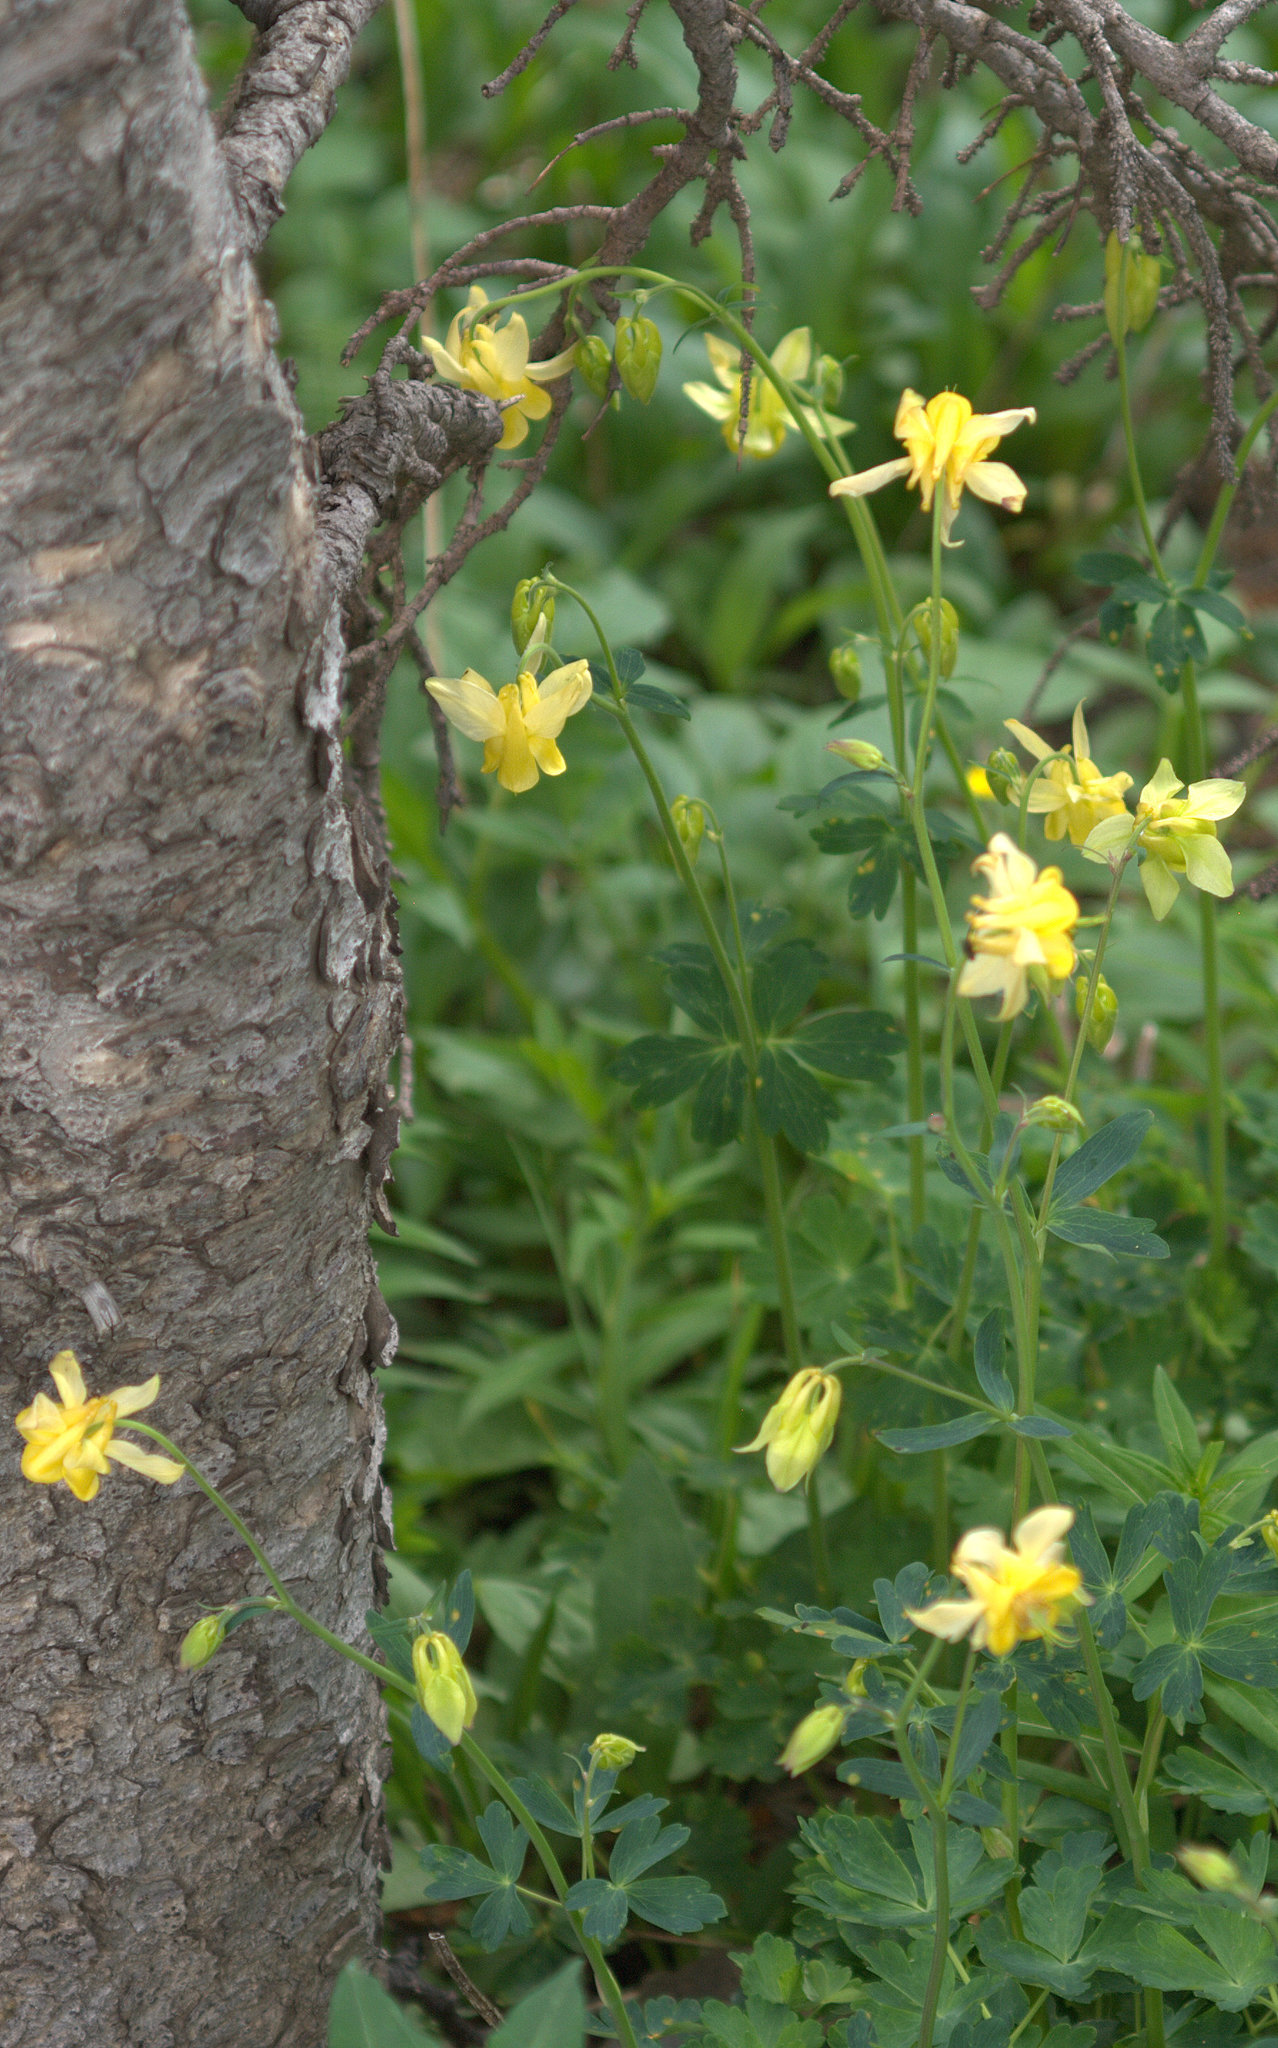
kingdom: Plantae
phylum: Tracheophyta
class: Magnoliopsida
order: Ranunculales
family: Ranunculaceae
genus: Aquilegia
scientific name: Aquilegia flavescens
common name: Yellow columbine
